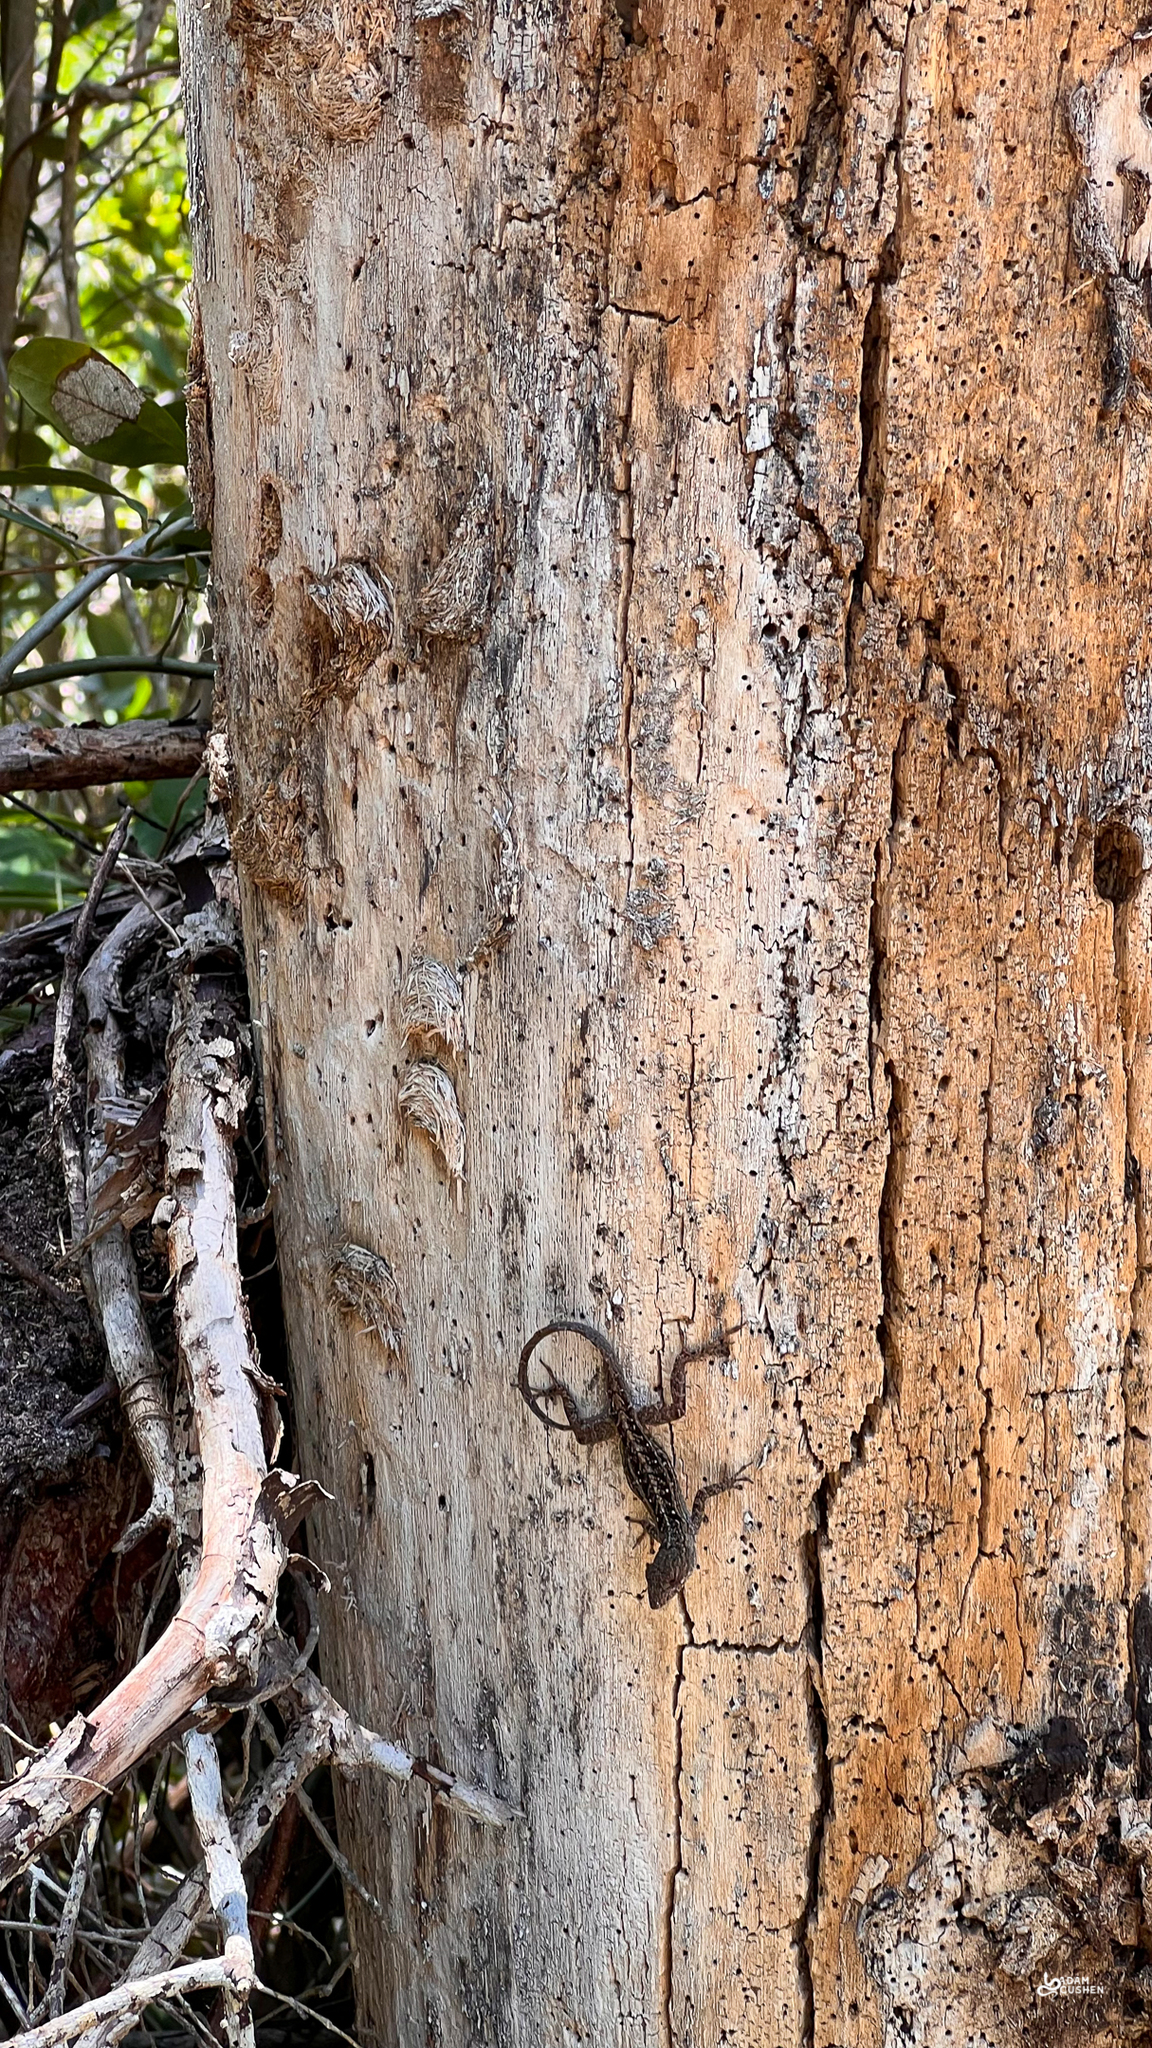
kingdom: Animalia
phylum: Chordata
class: Squamata
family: Dactyloidae
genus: Anolis
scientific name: Anolis sagrei
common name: Brown anole
